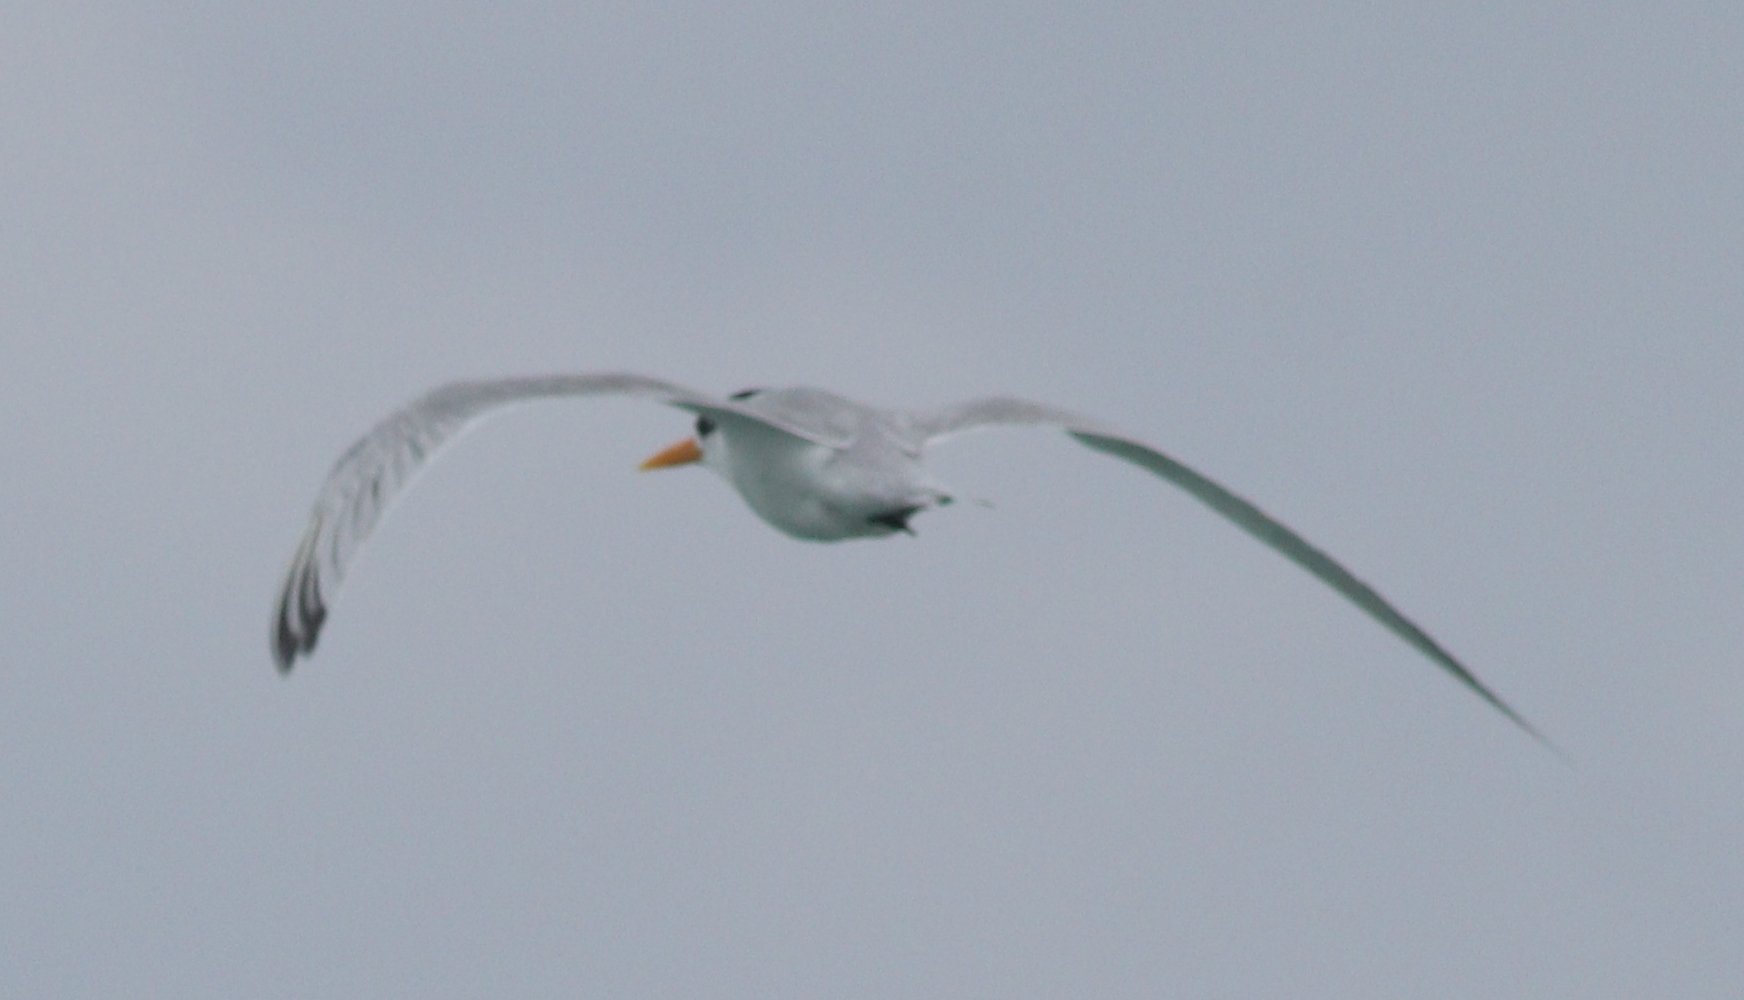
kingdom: Animalia
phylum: Chordata
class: Aves
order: Charadriiformes
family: Laridae
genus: Thalasseus
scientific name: Thalasseus bengalensis
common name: Lesser crested tern
